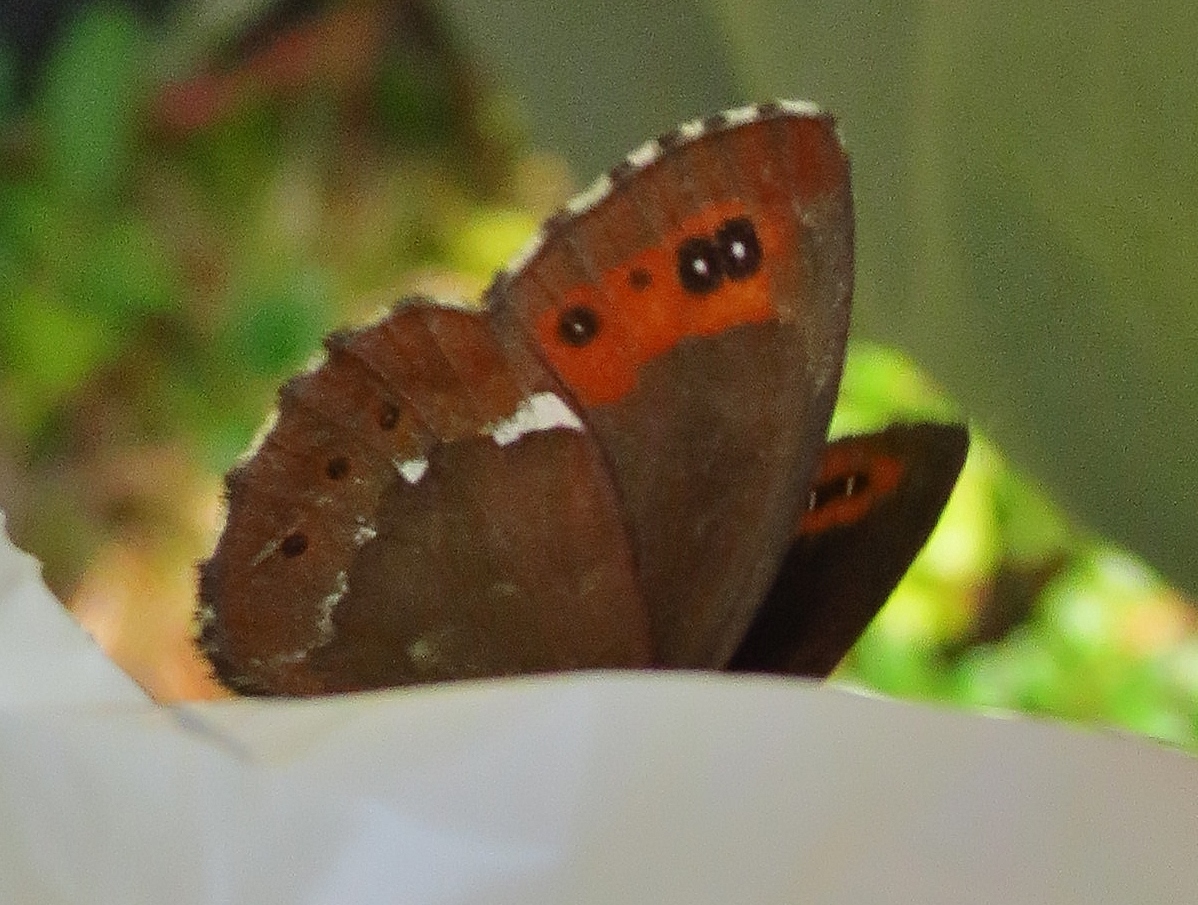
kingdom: Animalia
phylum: Arthropoda
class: Insecta
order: Lepidoptera
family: Nymphalidae
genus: Erebia
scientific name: Erebia ligea
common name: Arran brown
